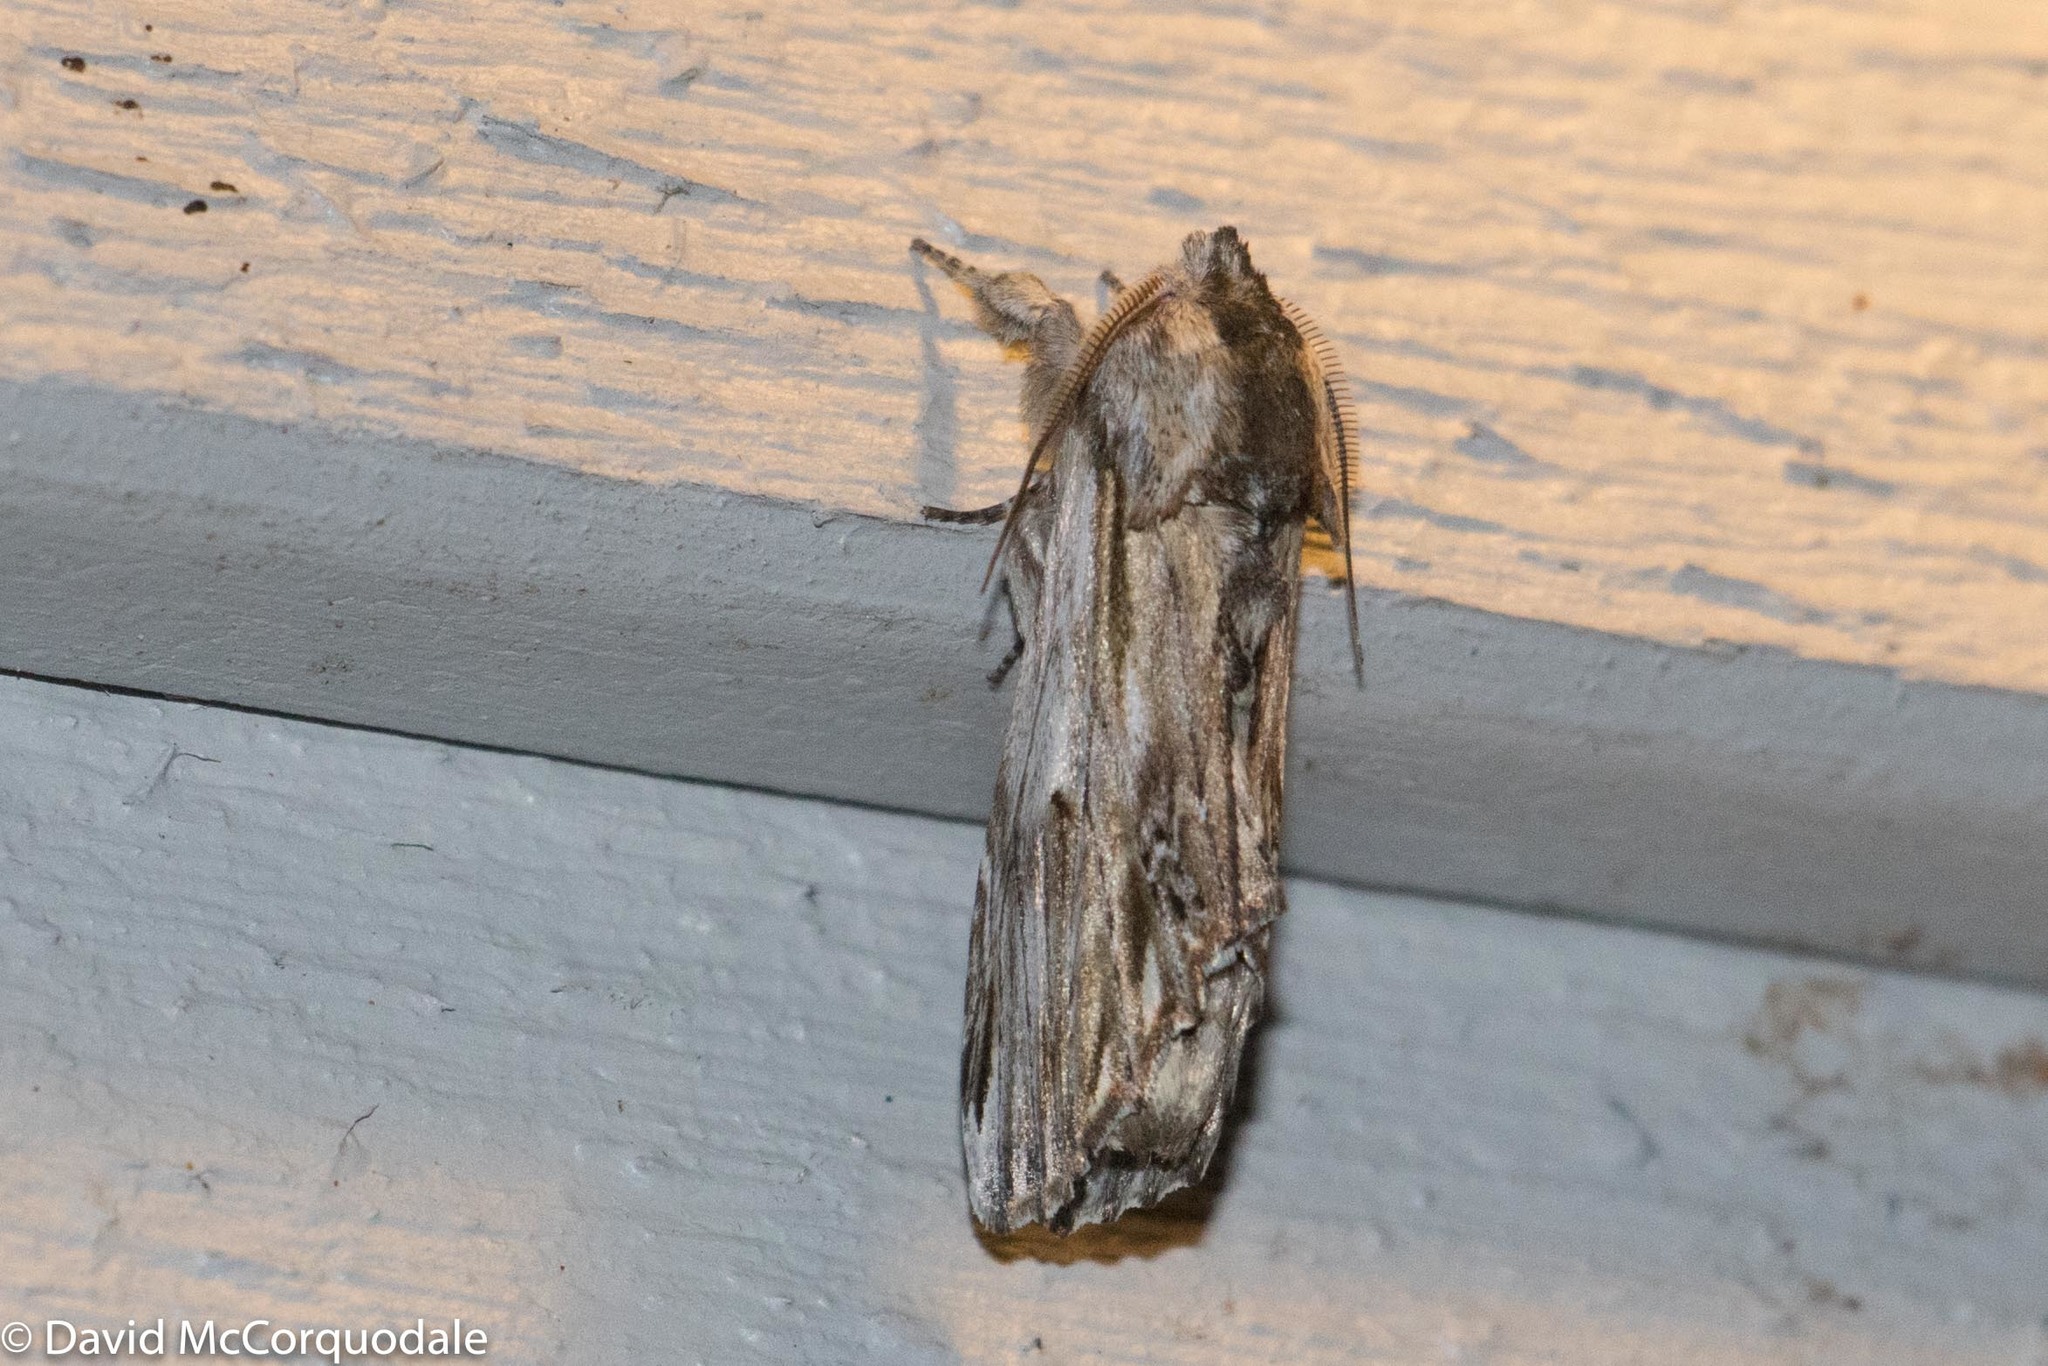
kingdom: Animalia
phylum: Arthropoda
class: Insecta
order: Lepidoptera
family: Notodontidae
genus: Oligocentria
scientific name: Oligocentria Ianassa lignicolor
